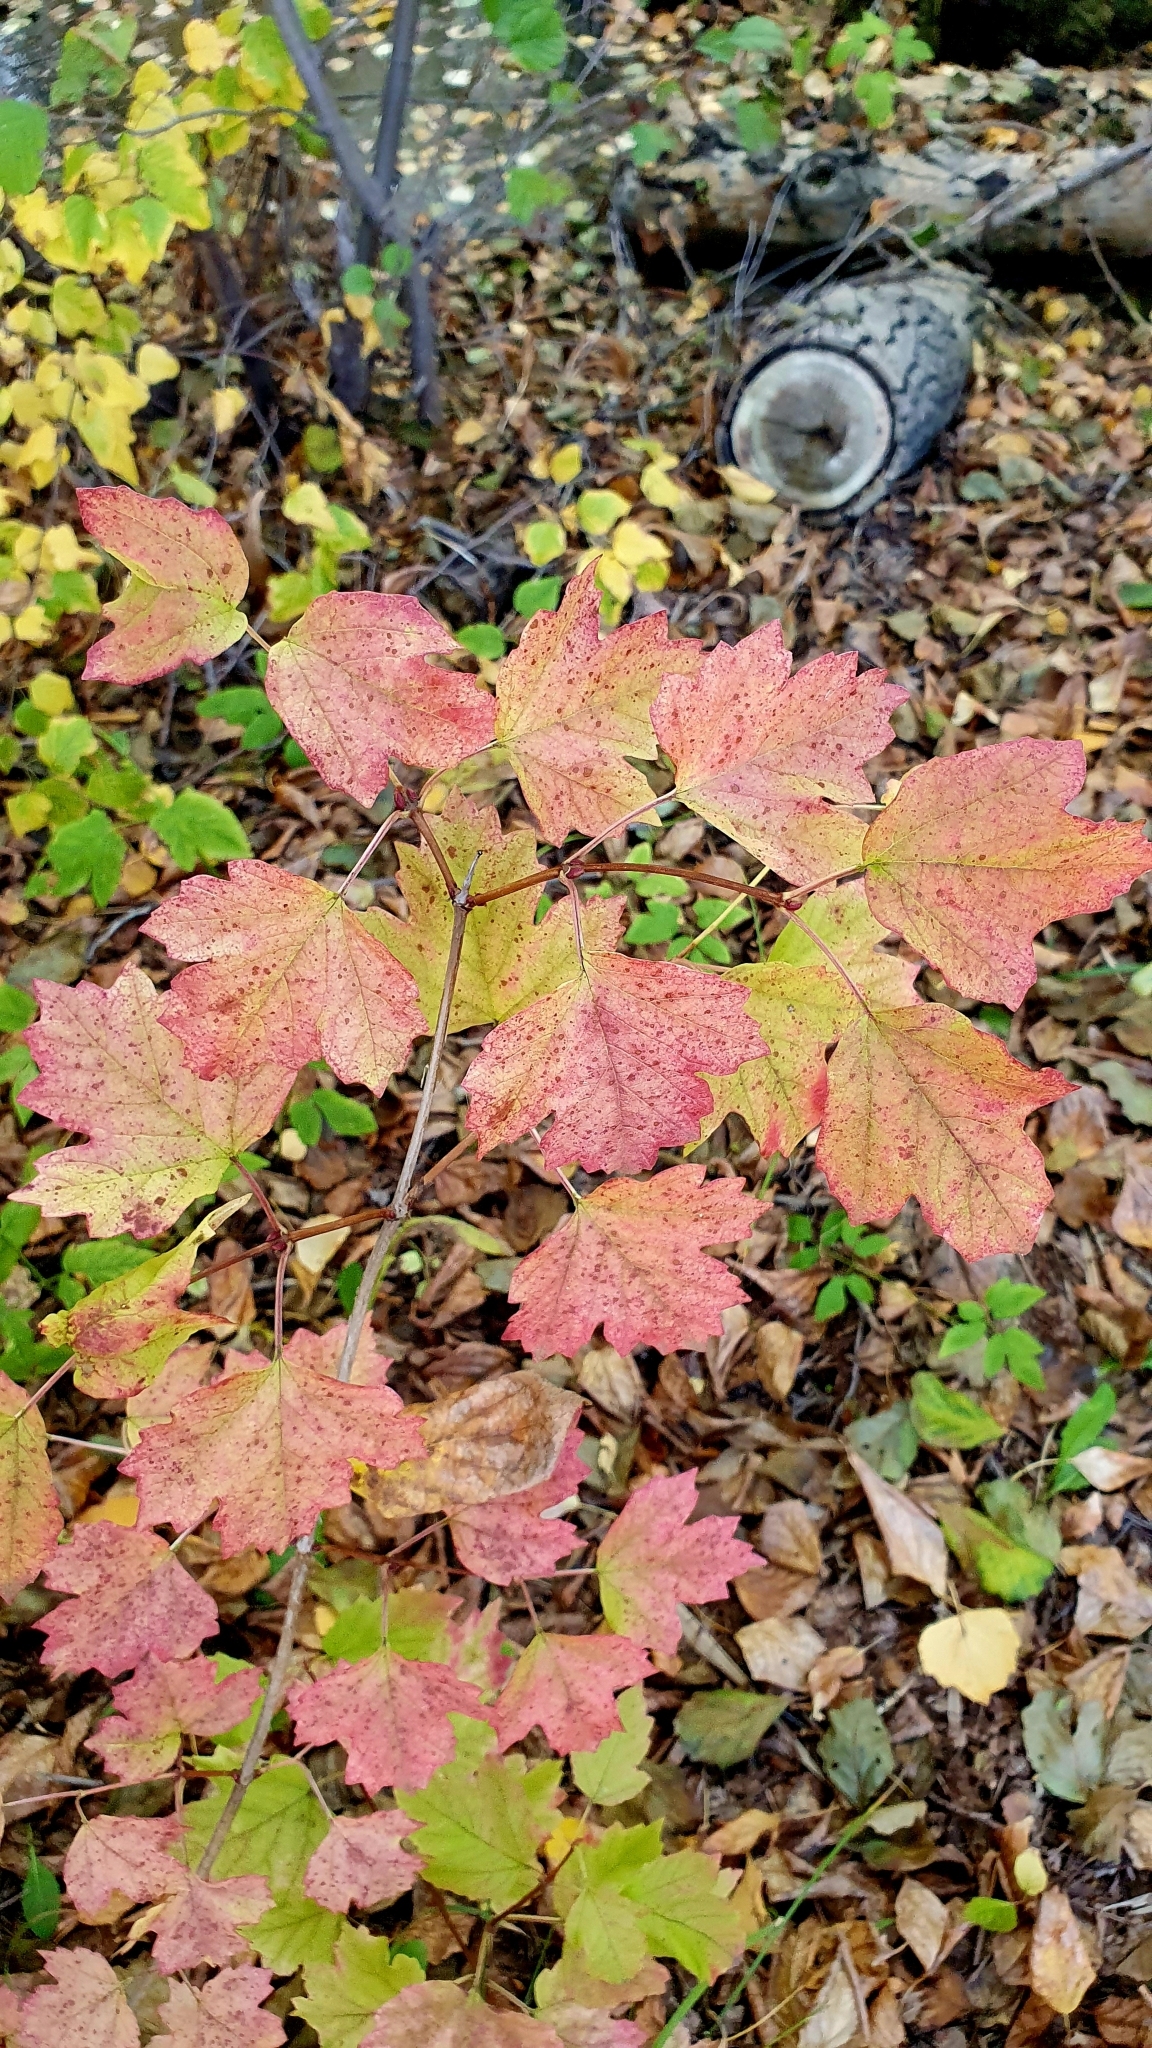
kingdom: Plantae
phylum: Tracheophyta
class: Magnoliopsida
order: Dipsacales
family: Viburnaceae
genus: Viburnum
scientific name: Viburnum opulus
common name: Guelder-rose
